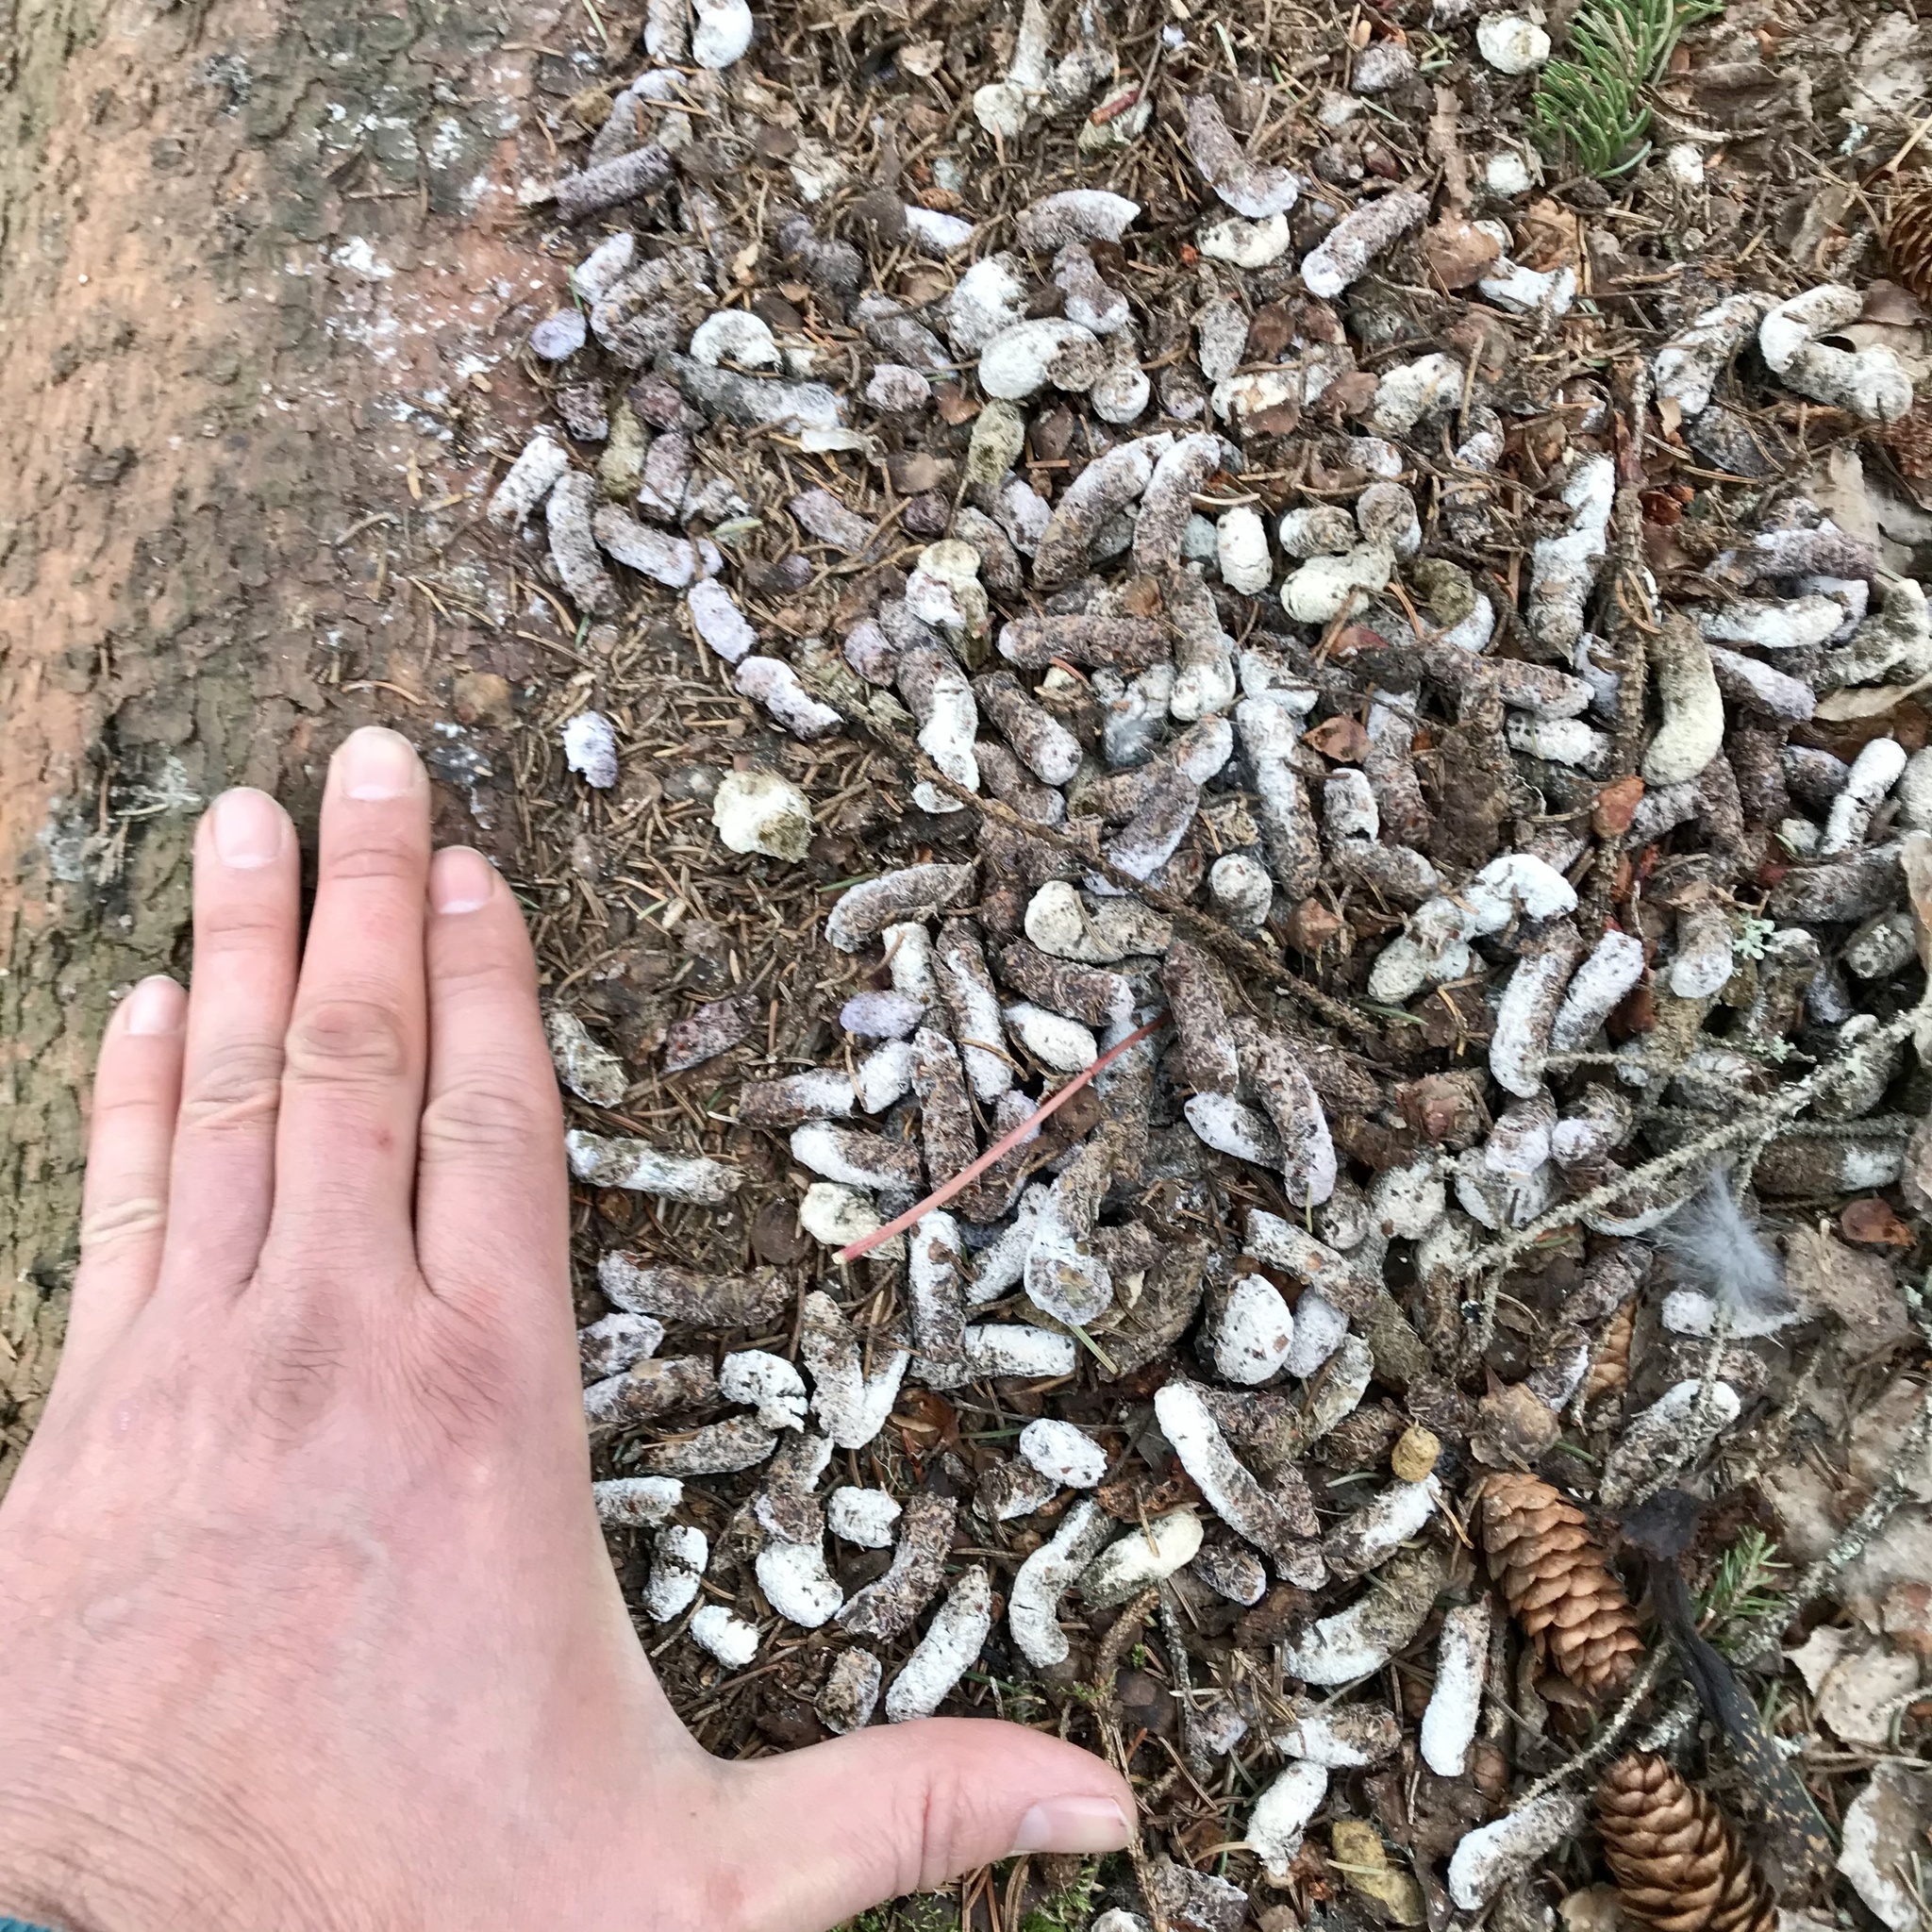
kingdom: Animalia
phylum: Chordata
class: Aves
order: Galliformes
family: Phasianidae
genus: Bonasa
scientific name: Bonasa umbellus
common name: Ruffed grouse
